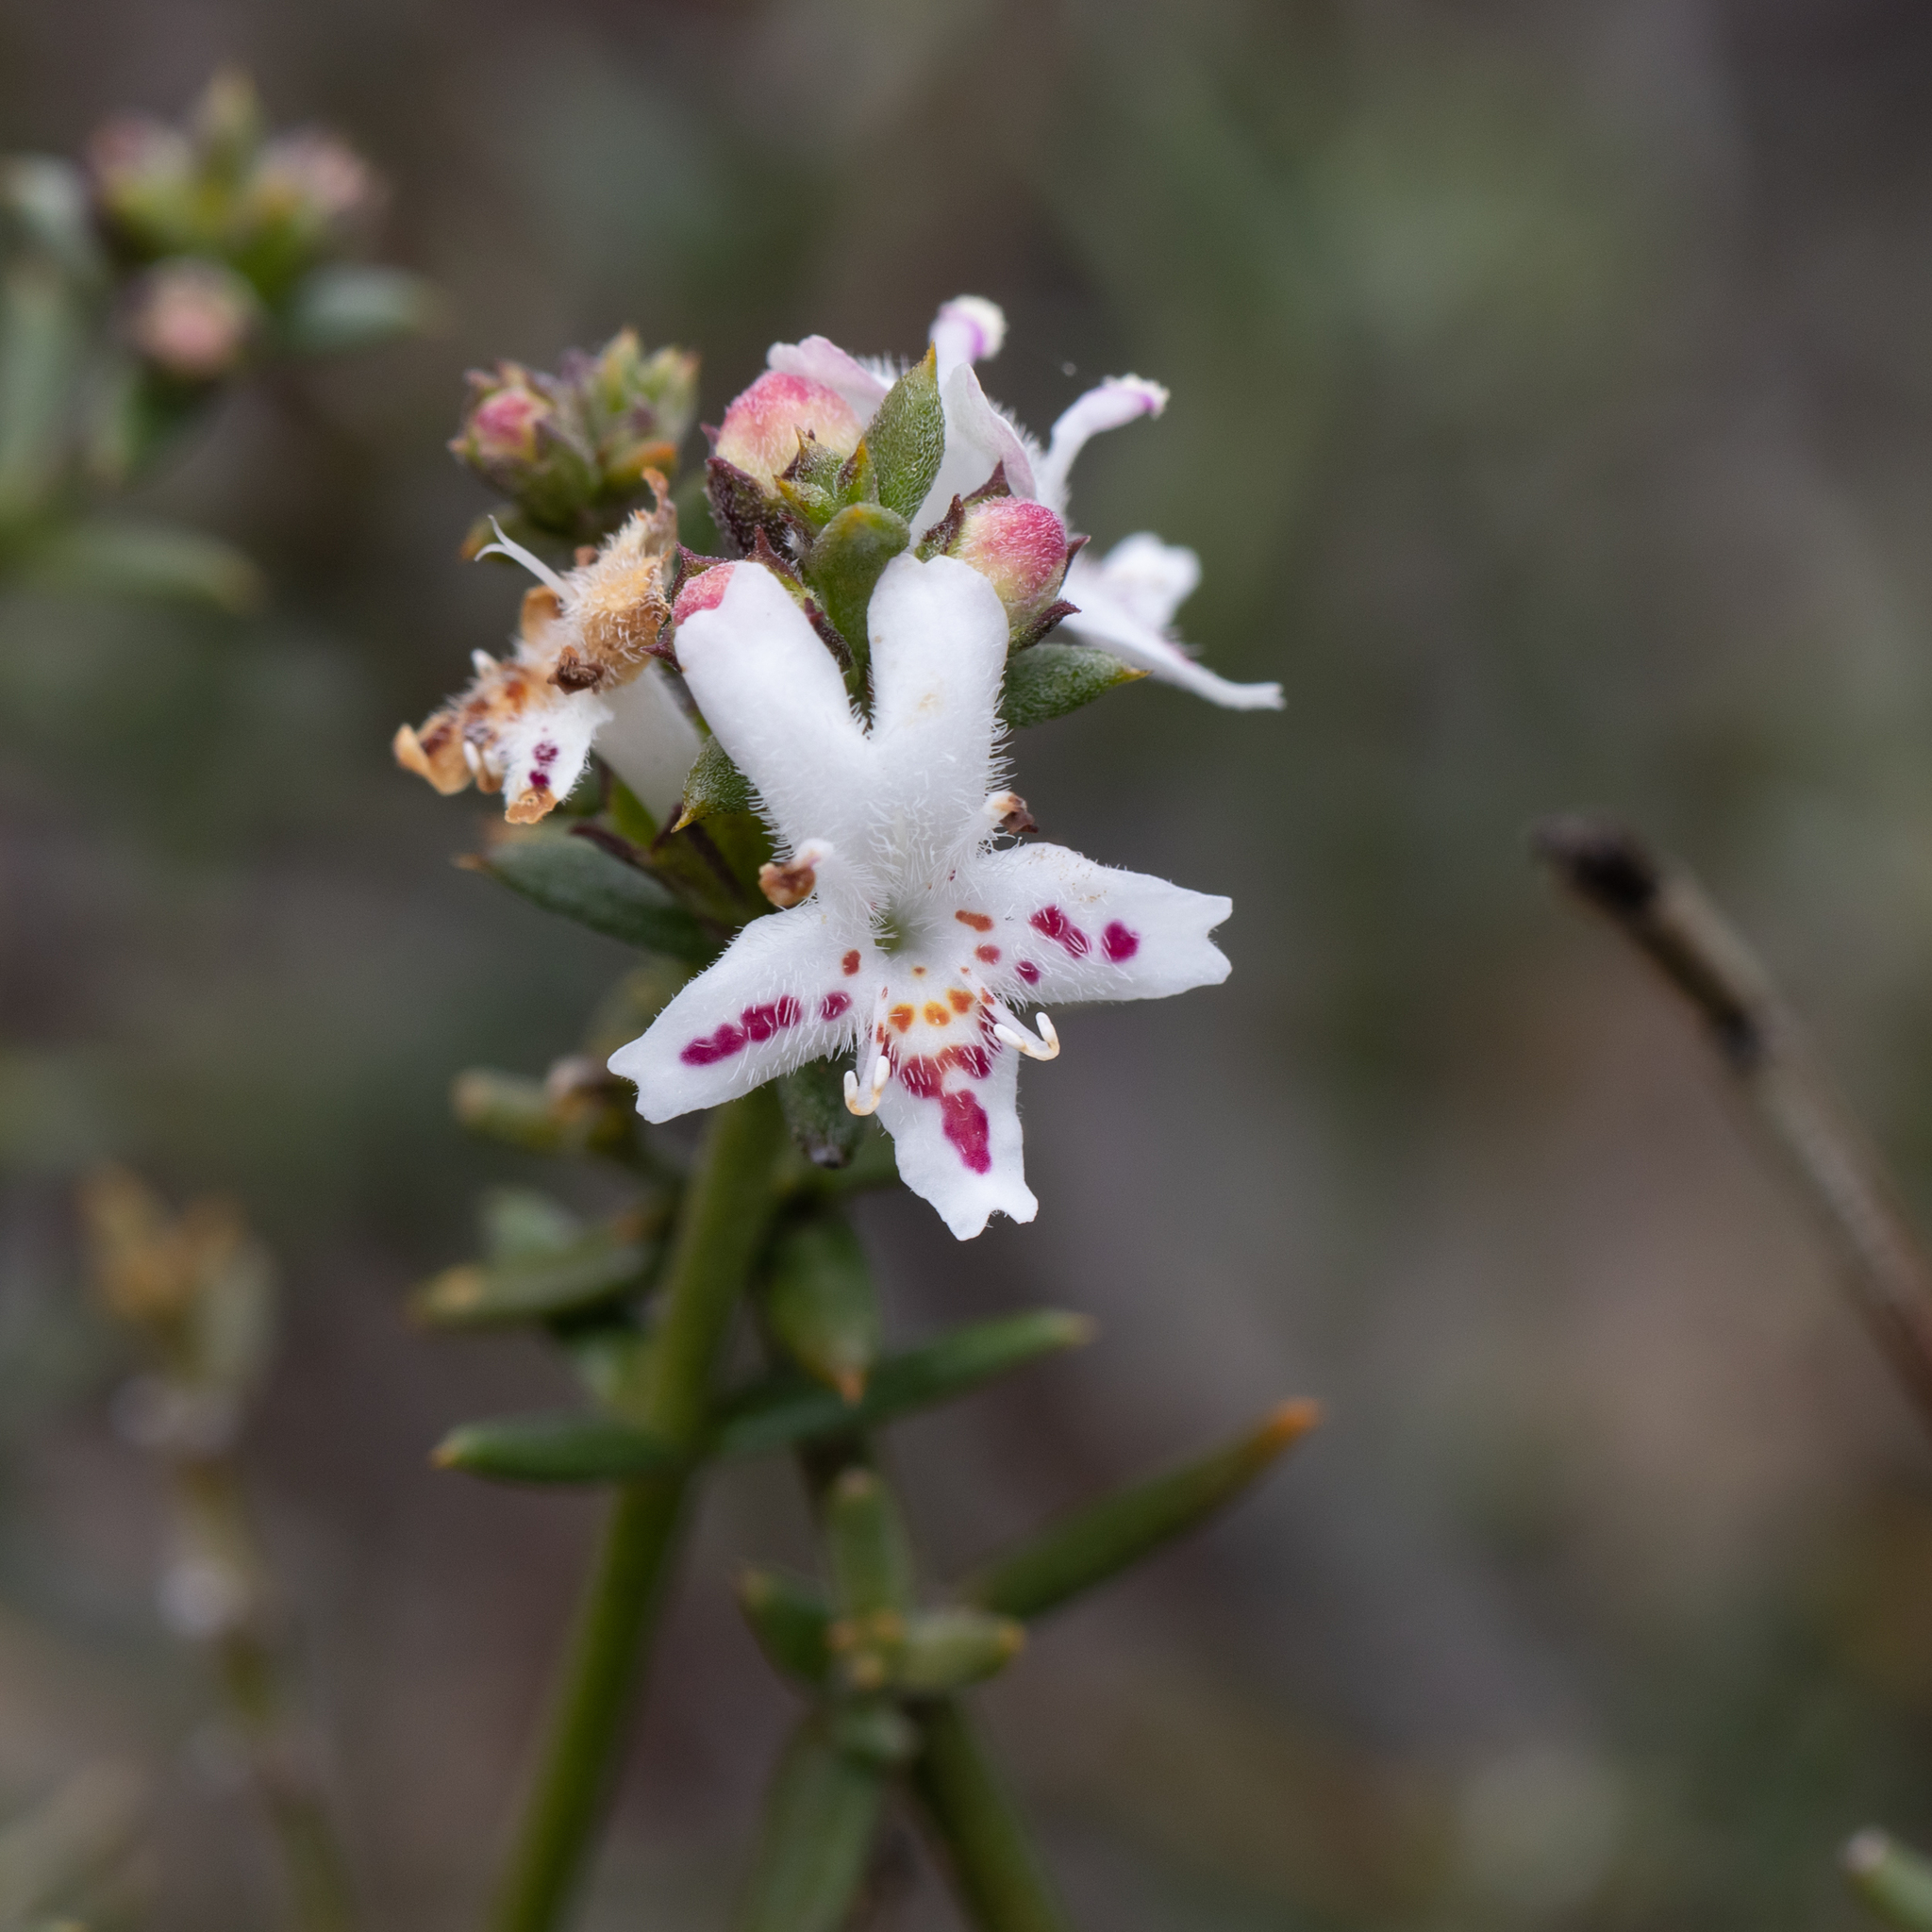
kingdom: Plantae
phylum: Tracheophyta
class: Magnoliopsida
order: Lamiales
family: Lamiaceae
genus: Westringia
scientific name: Westringia rigida
